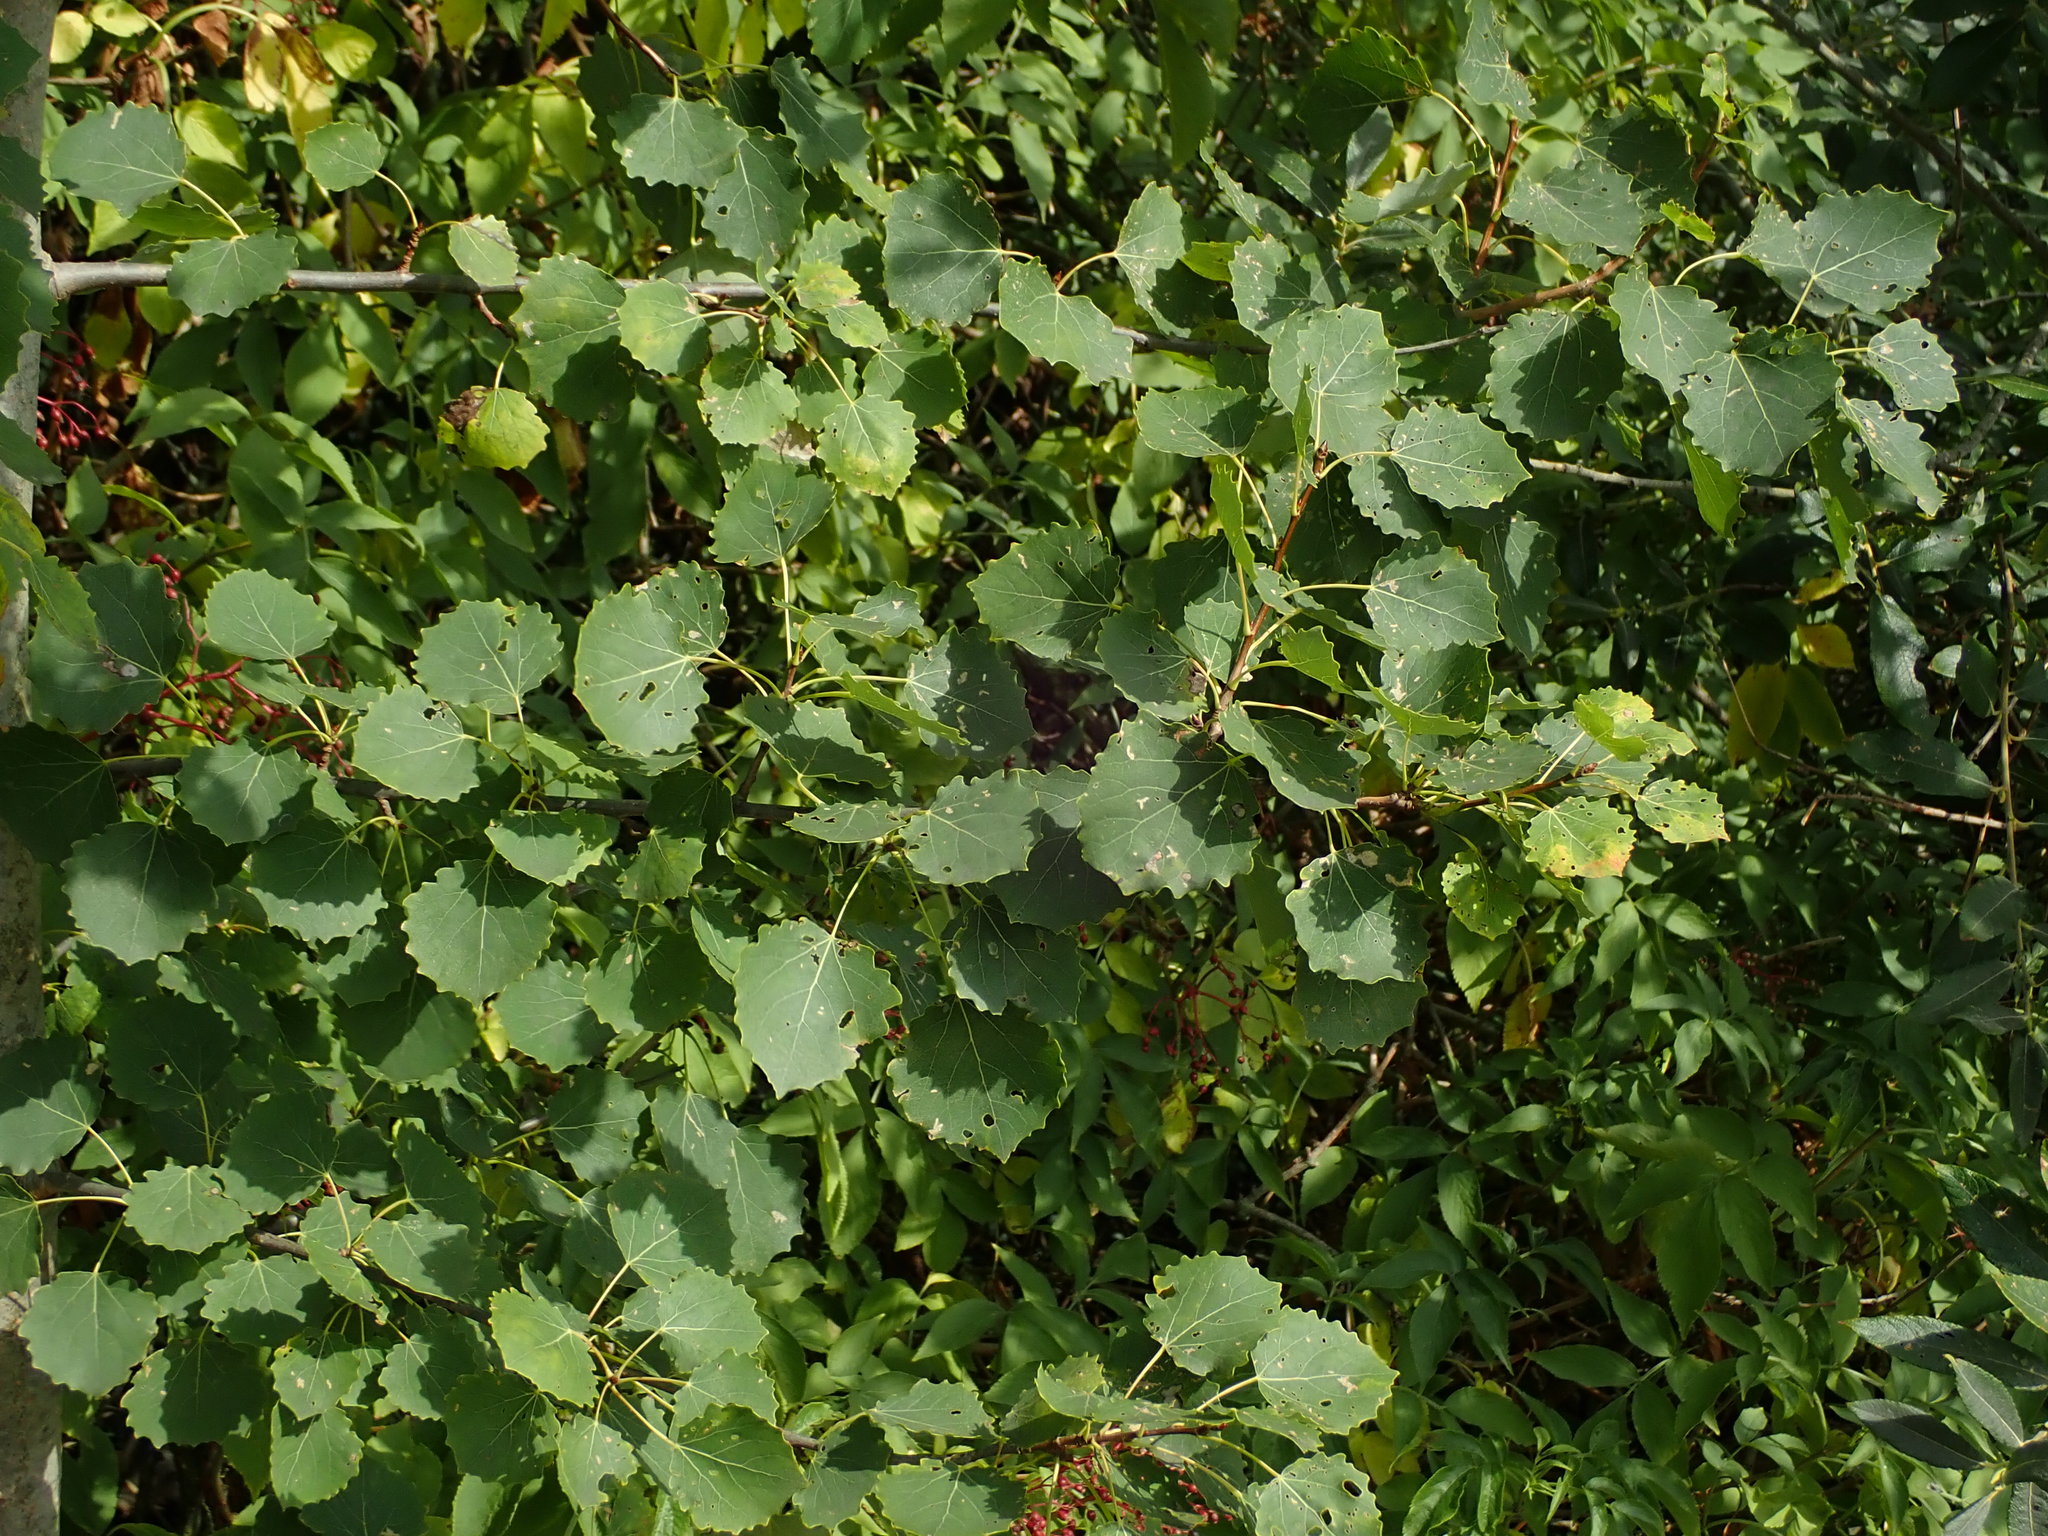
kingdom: Plantae
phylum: Tracheophyta
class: Magnoliopsida
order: Malpighiales
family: Salicaceae
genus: Populus
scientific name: Populus tremula
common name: European aspen
